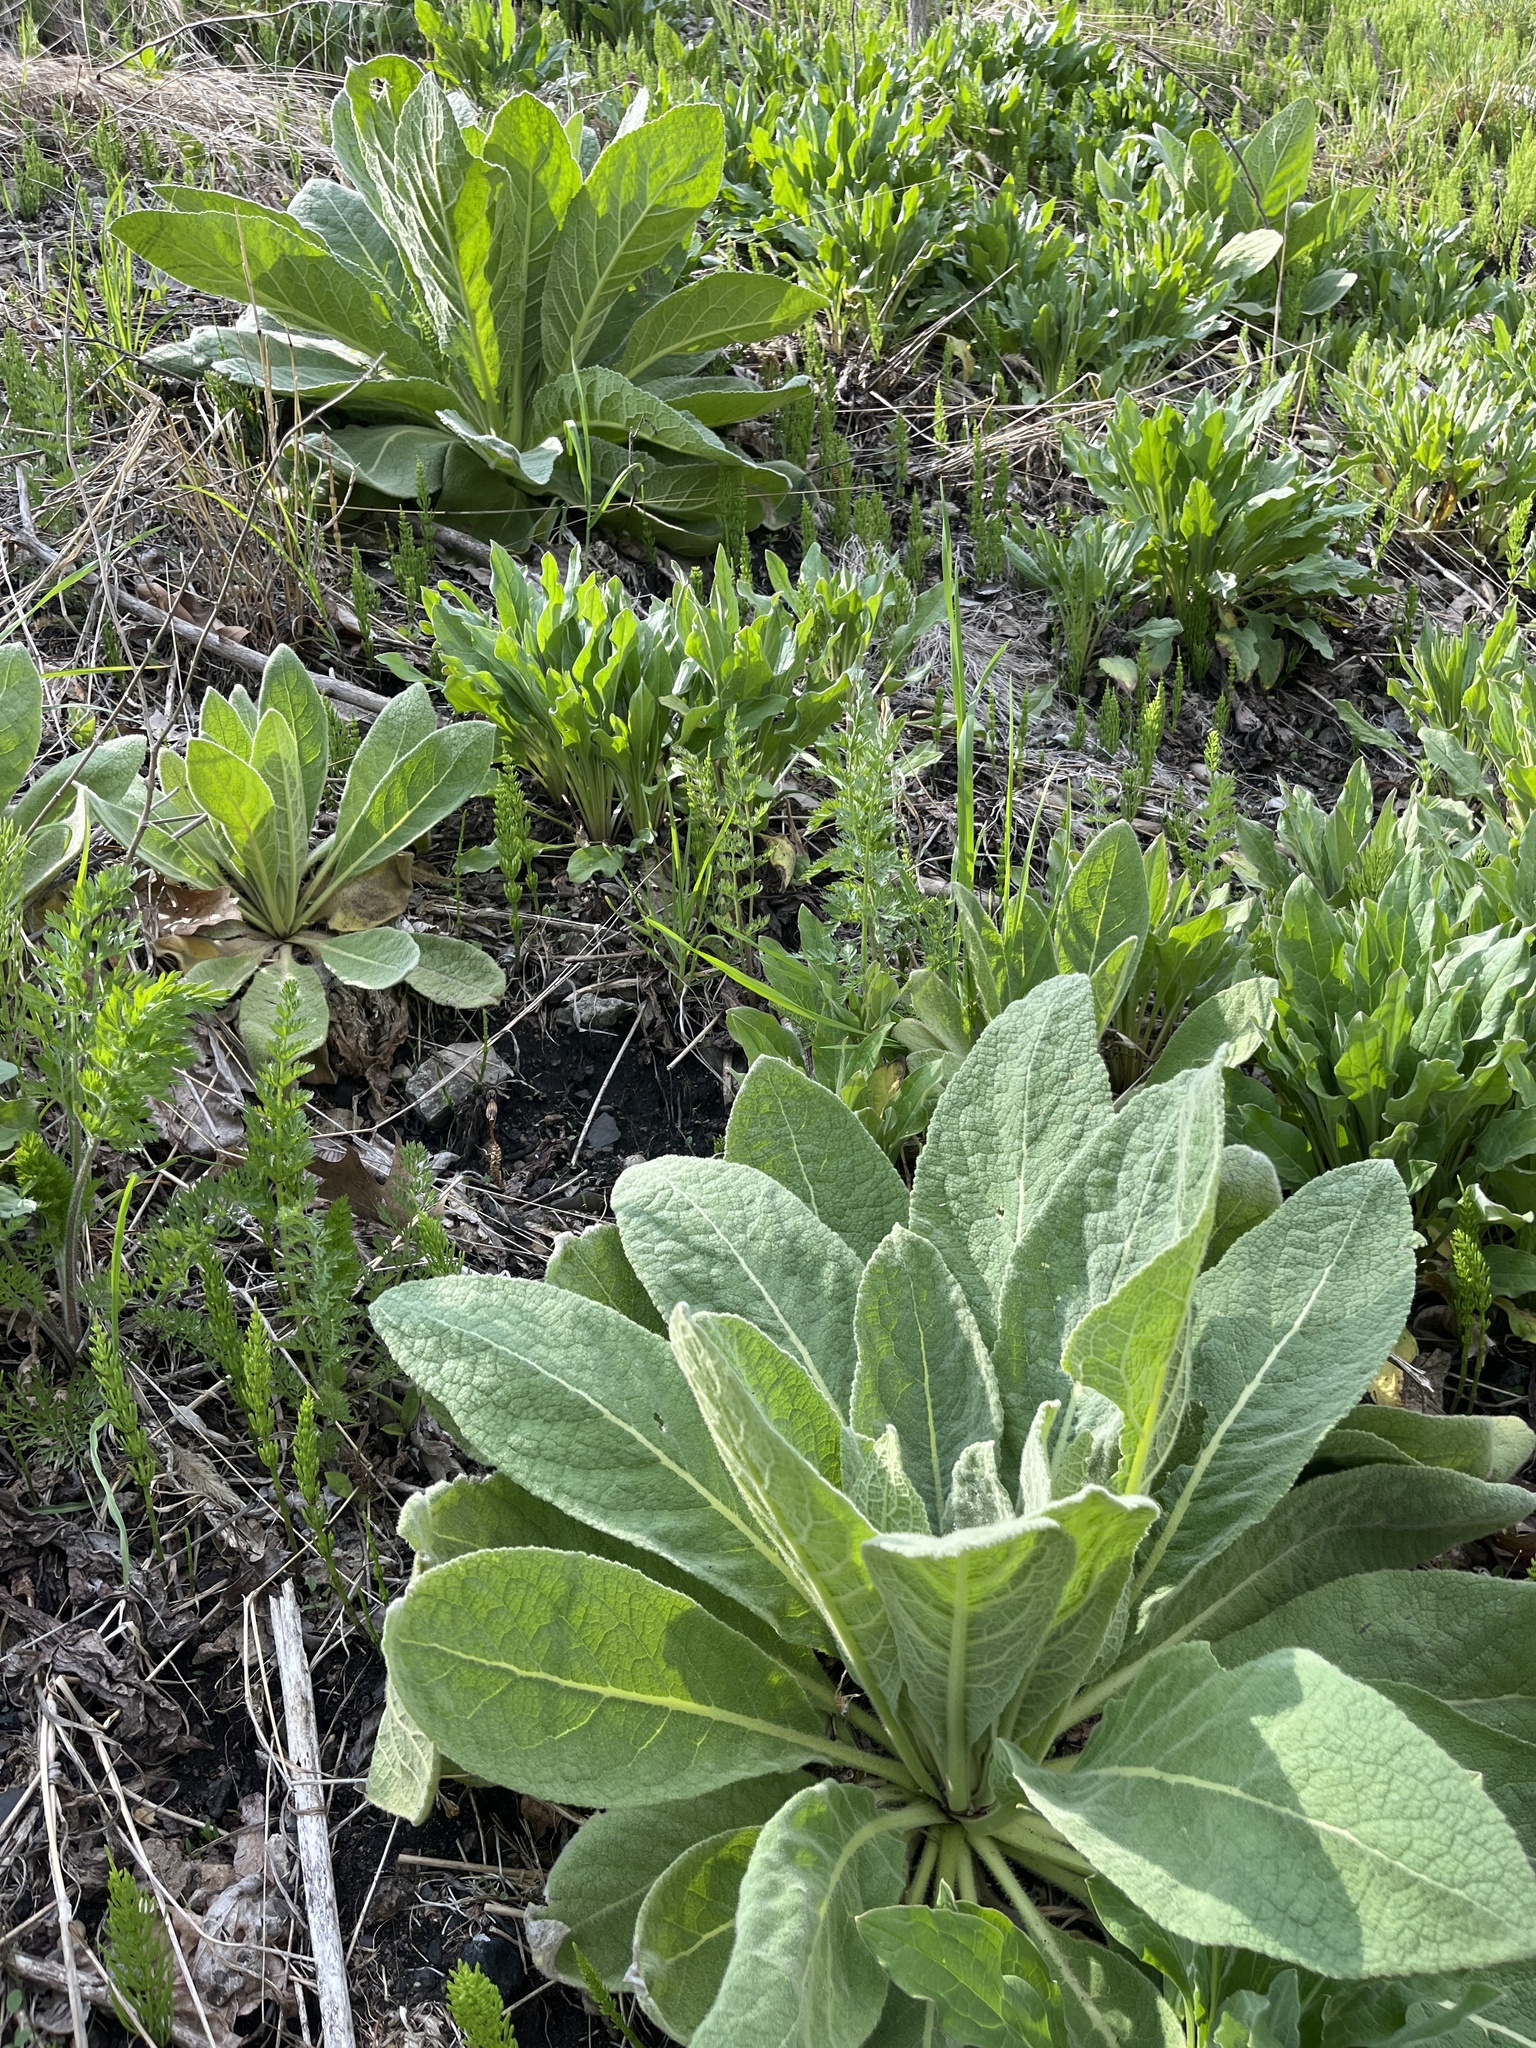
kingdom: Plantae
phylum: Tracheophyta
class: Magnoliopsida
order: Lamiales
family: Scrophulariaceae
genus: Verbascum
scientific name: Verbascum thapsus
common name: Common mullein
